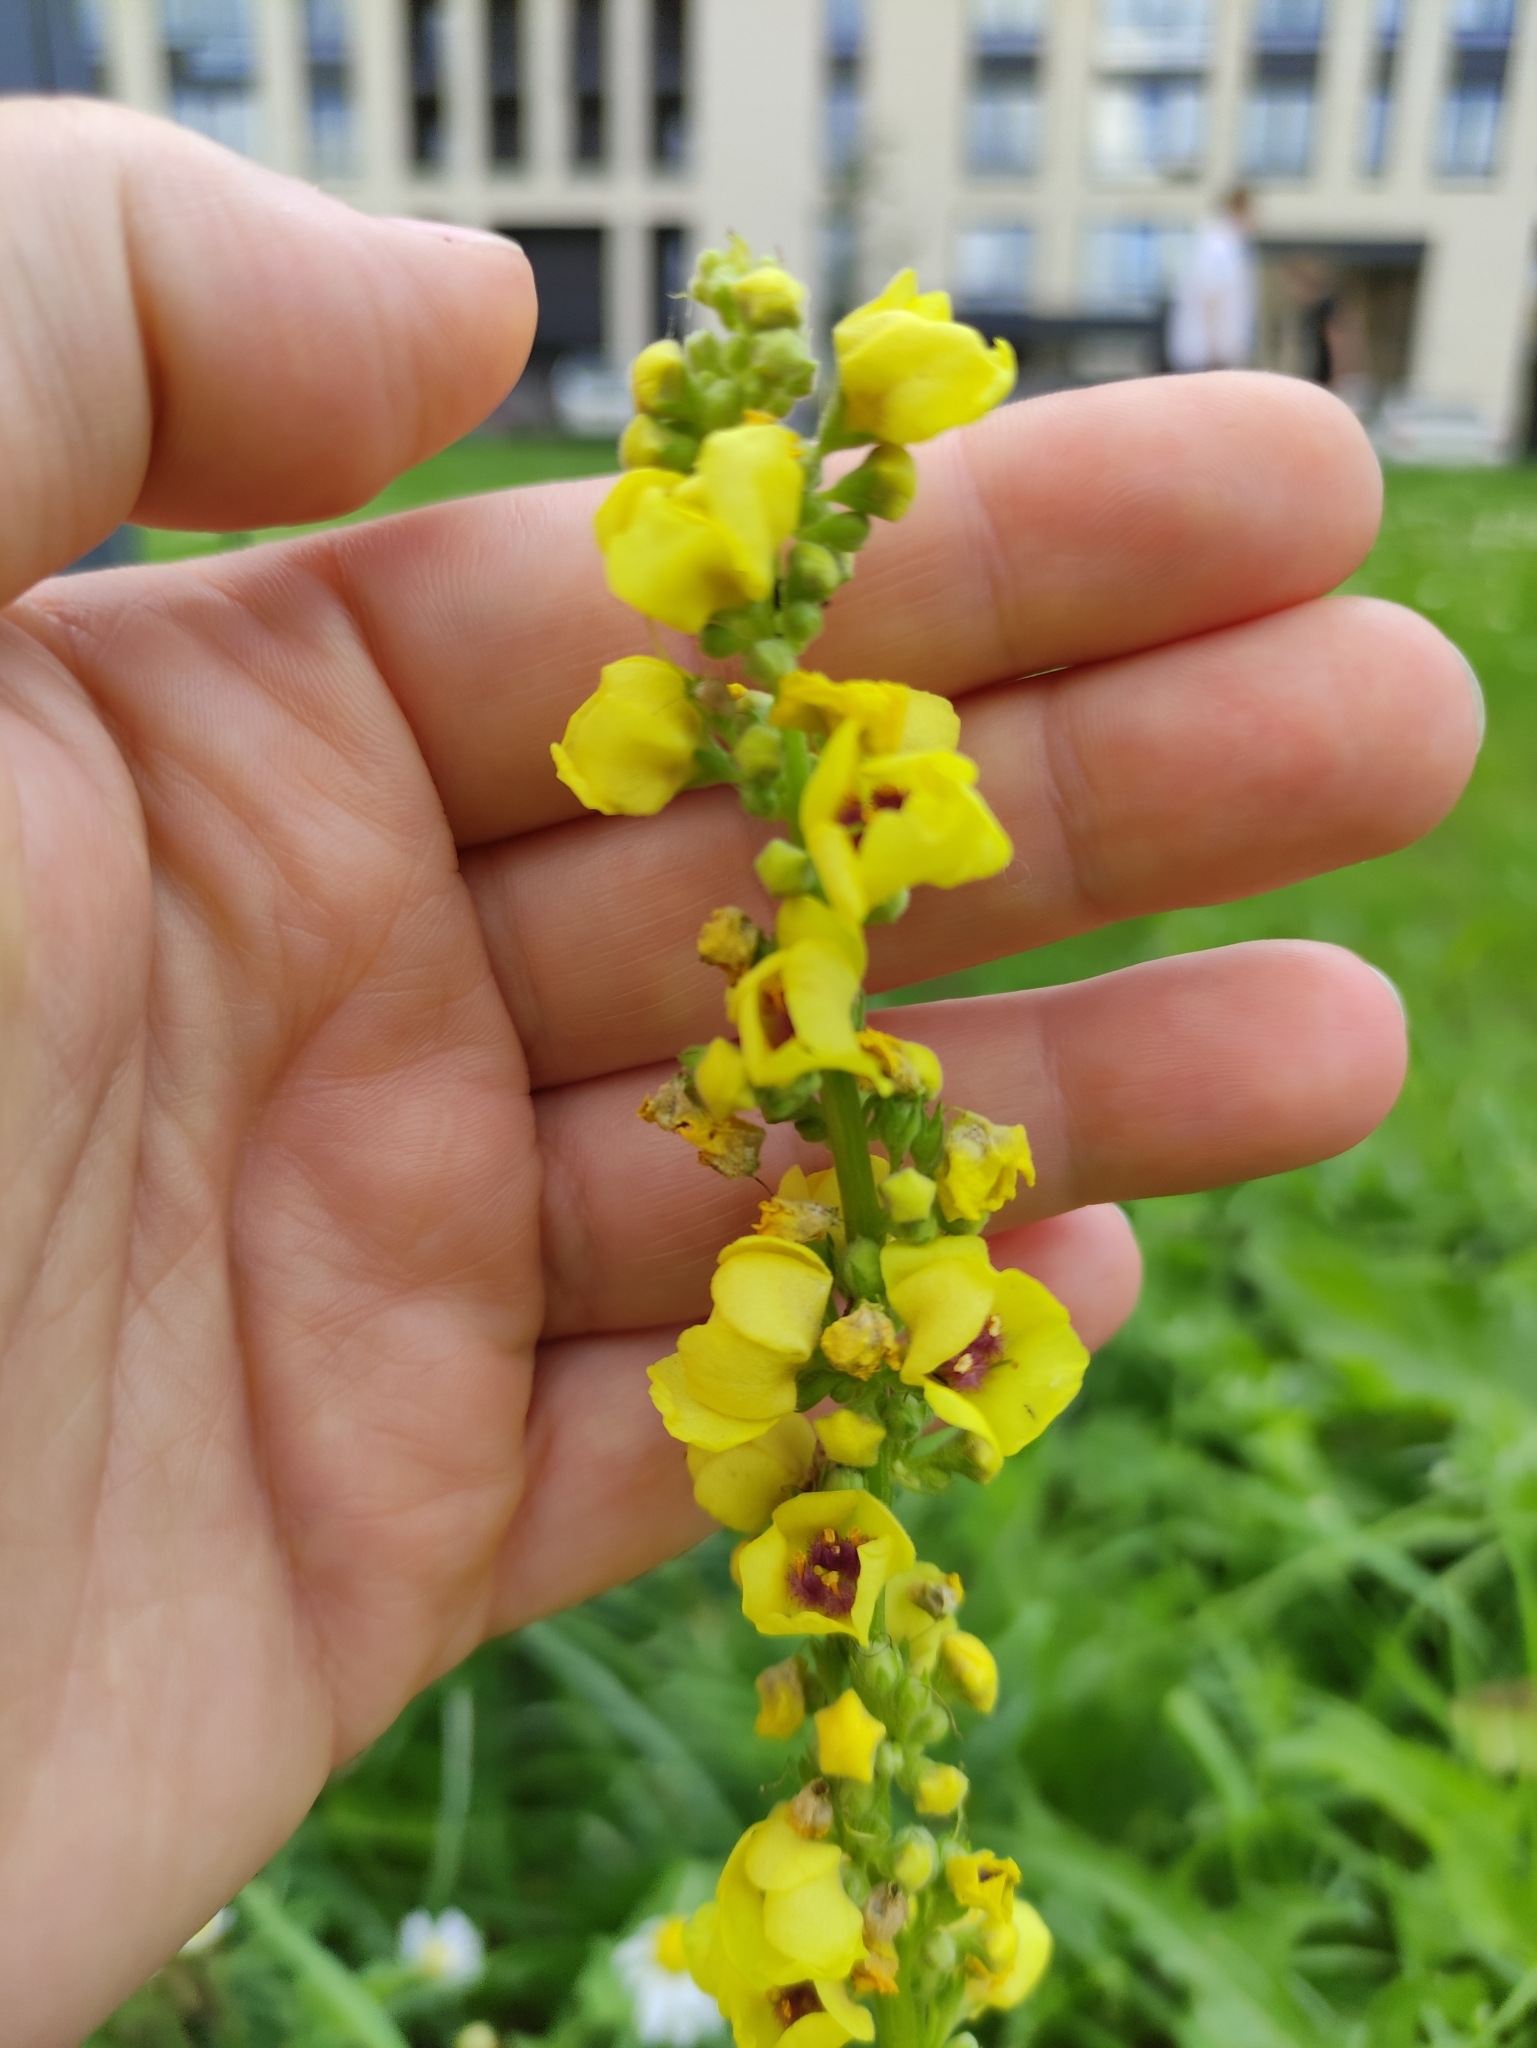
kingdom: Plantae
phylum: Tracheophyta
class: Magnoliopsida
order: Lamiales
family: Scrophulariaceae
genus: Verbascum
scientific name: Verbascum nigrum
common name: Dark mullein
